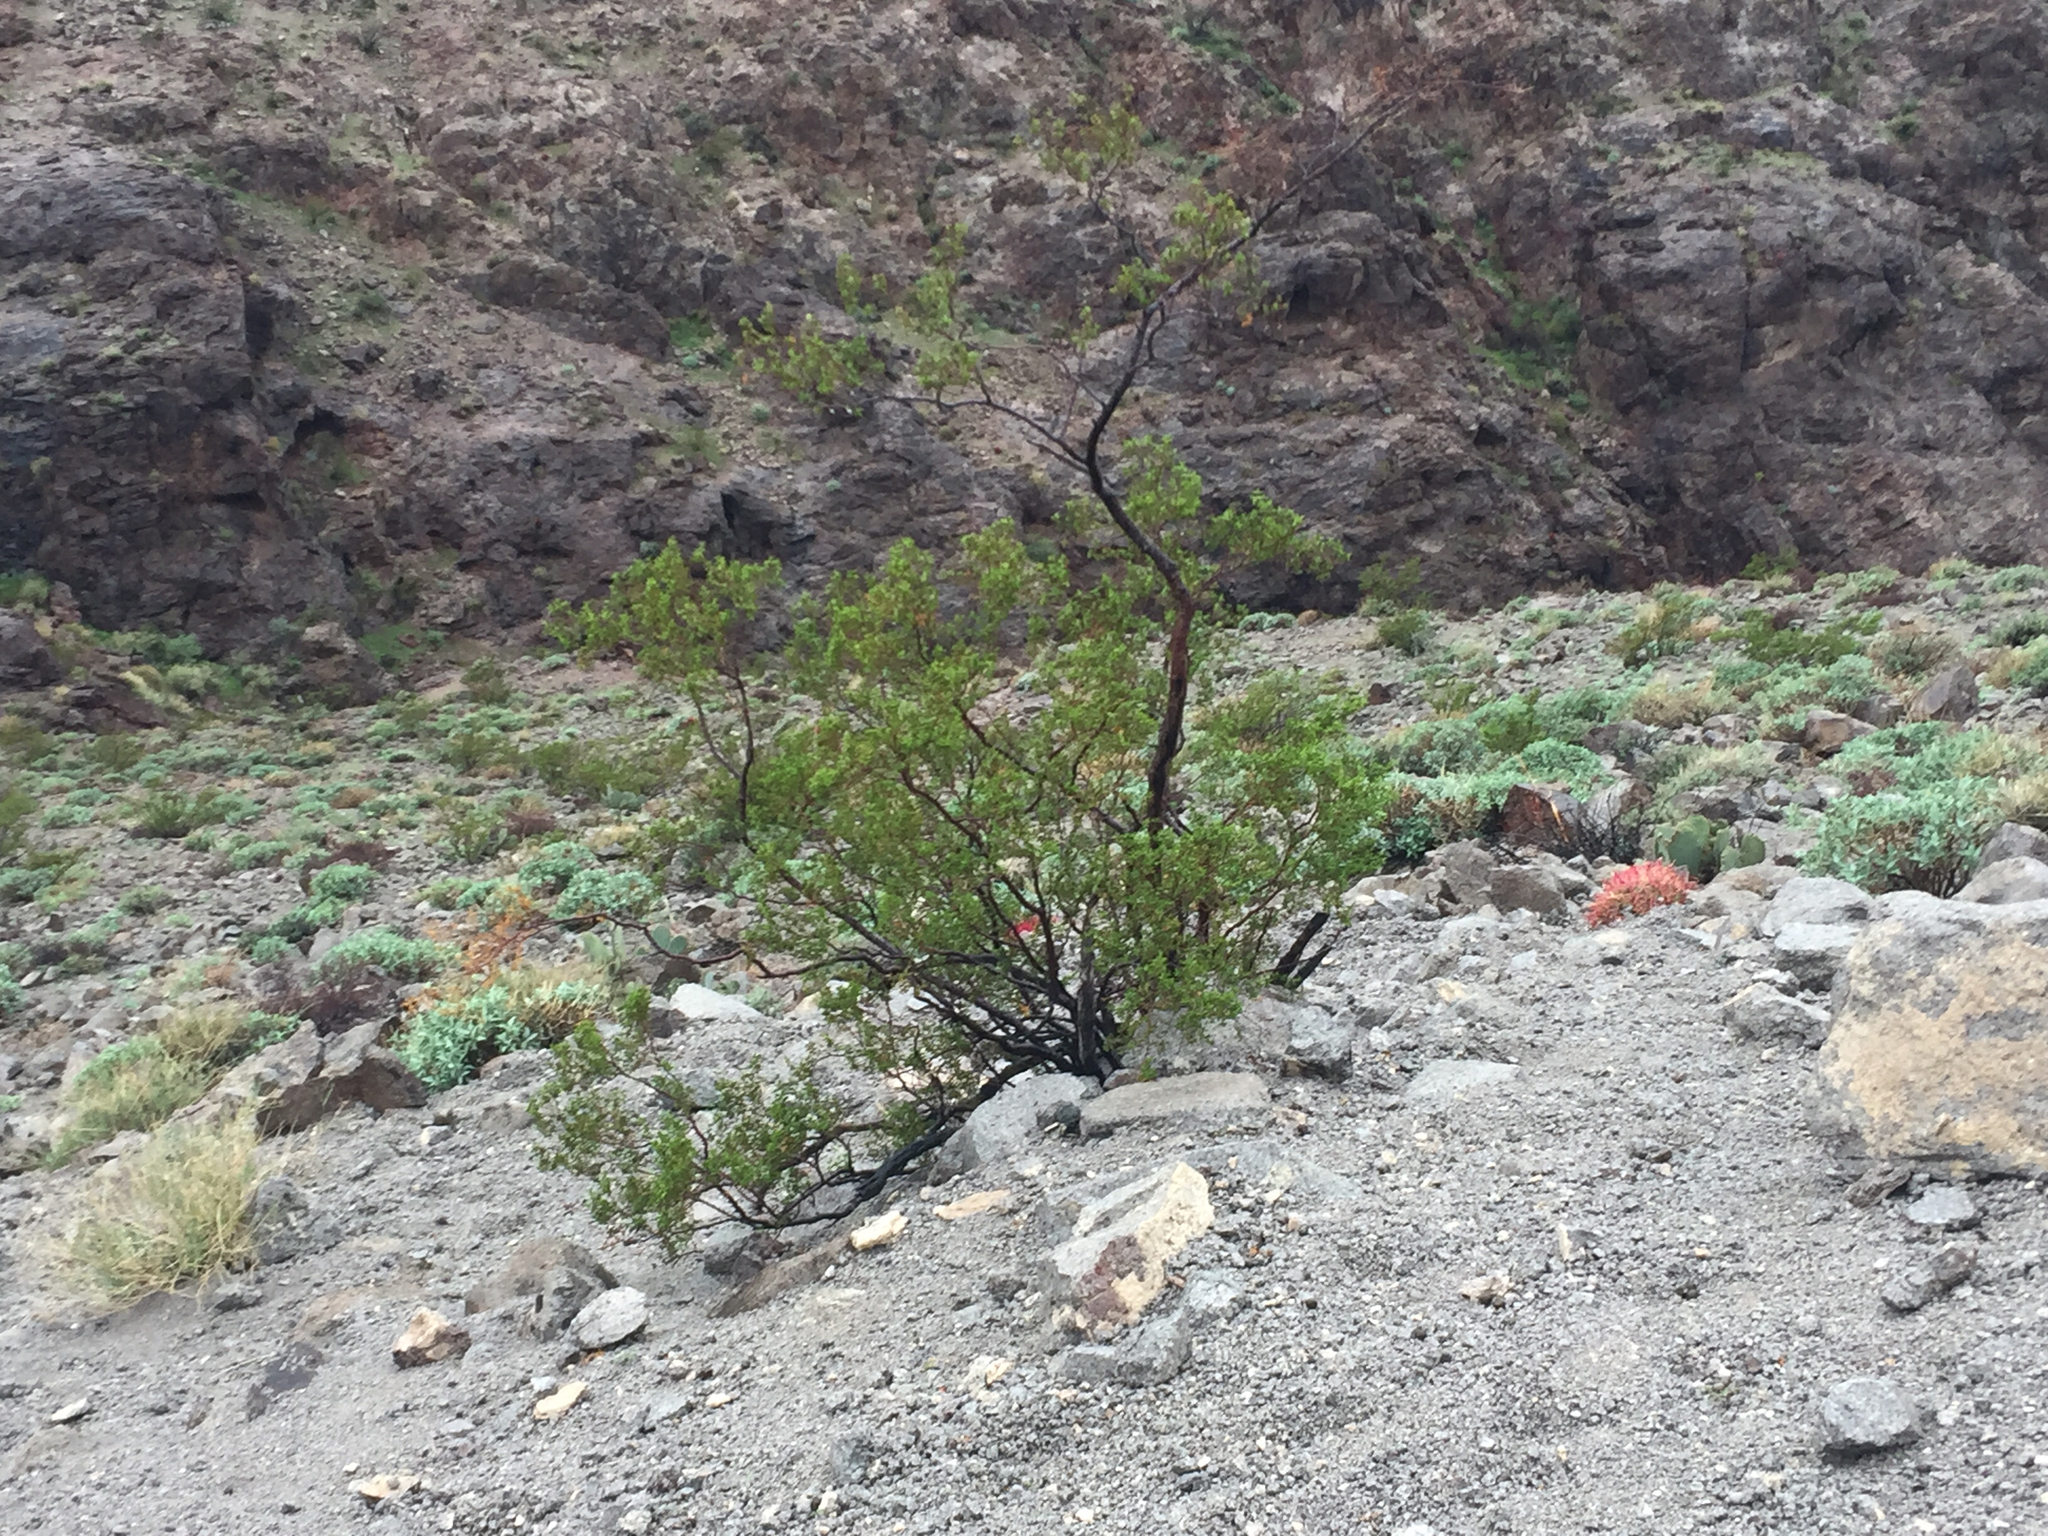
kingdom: Plantae
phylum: Tracheophyta
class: Magnoliopsida
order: Zygophyllales
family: Zygophyllaceae
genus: Larrea
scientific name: Larrea tridentata
